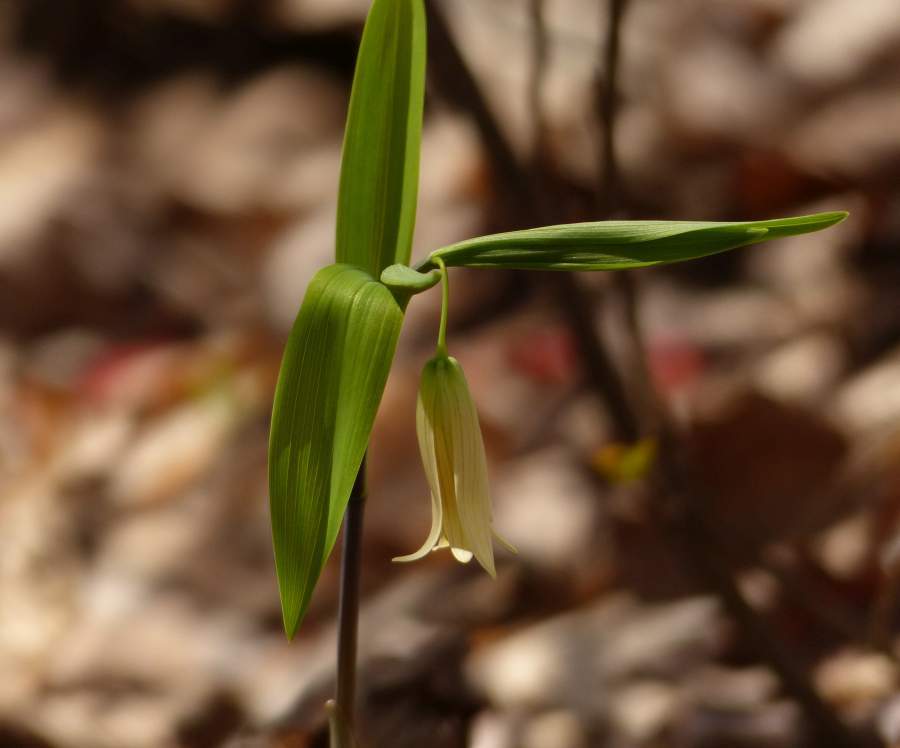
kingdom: Plantae
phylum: Tracheophyta
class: Liliopsida
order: Liliales
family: Colchicaceae
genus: Uvularia
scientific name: Uvularia sessilifolia
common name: Straw-lily
